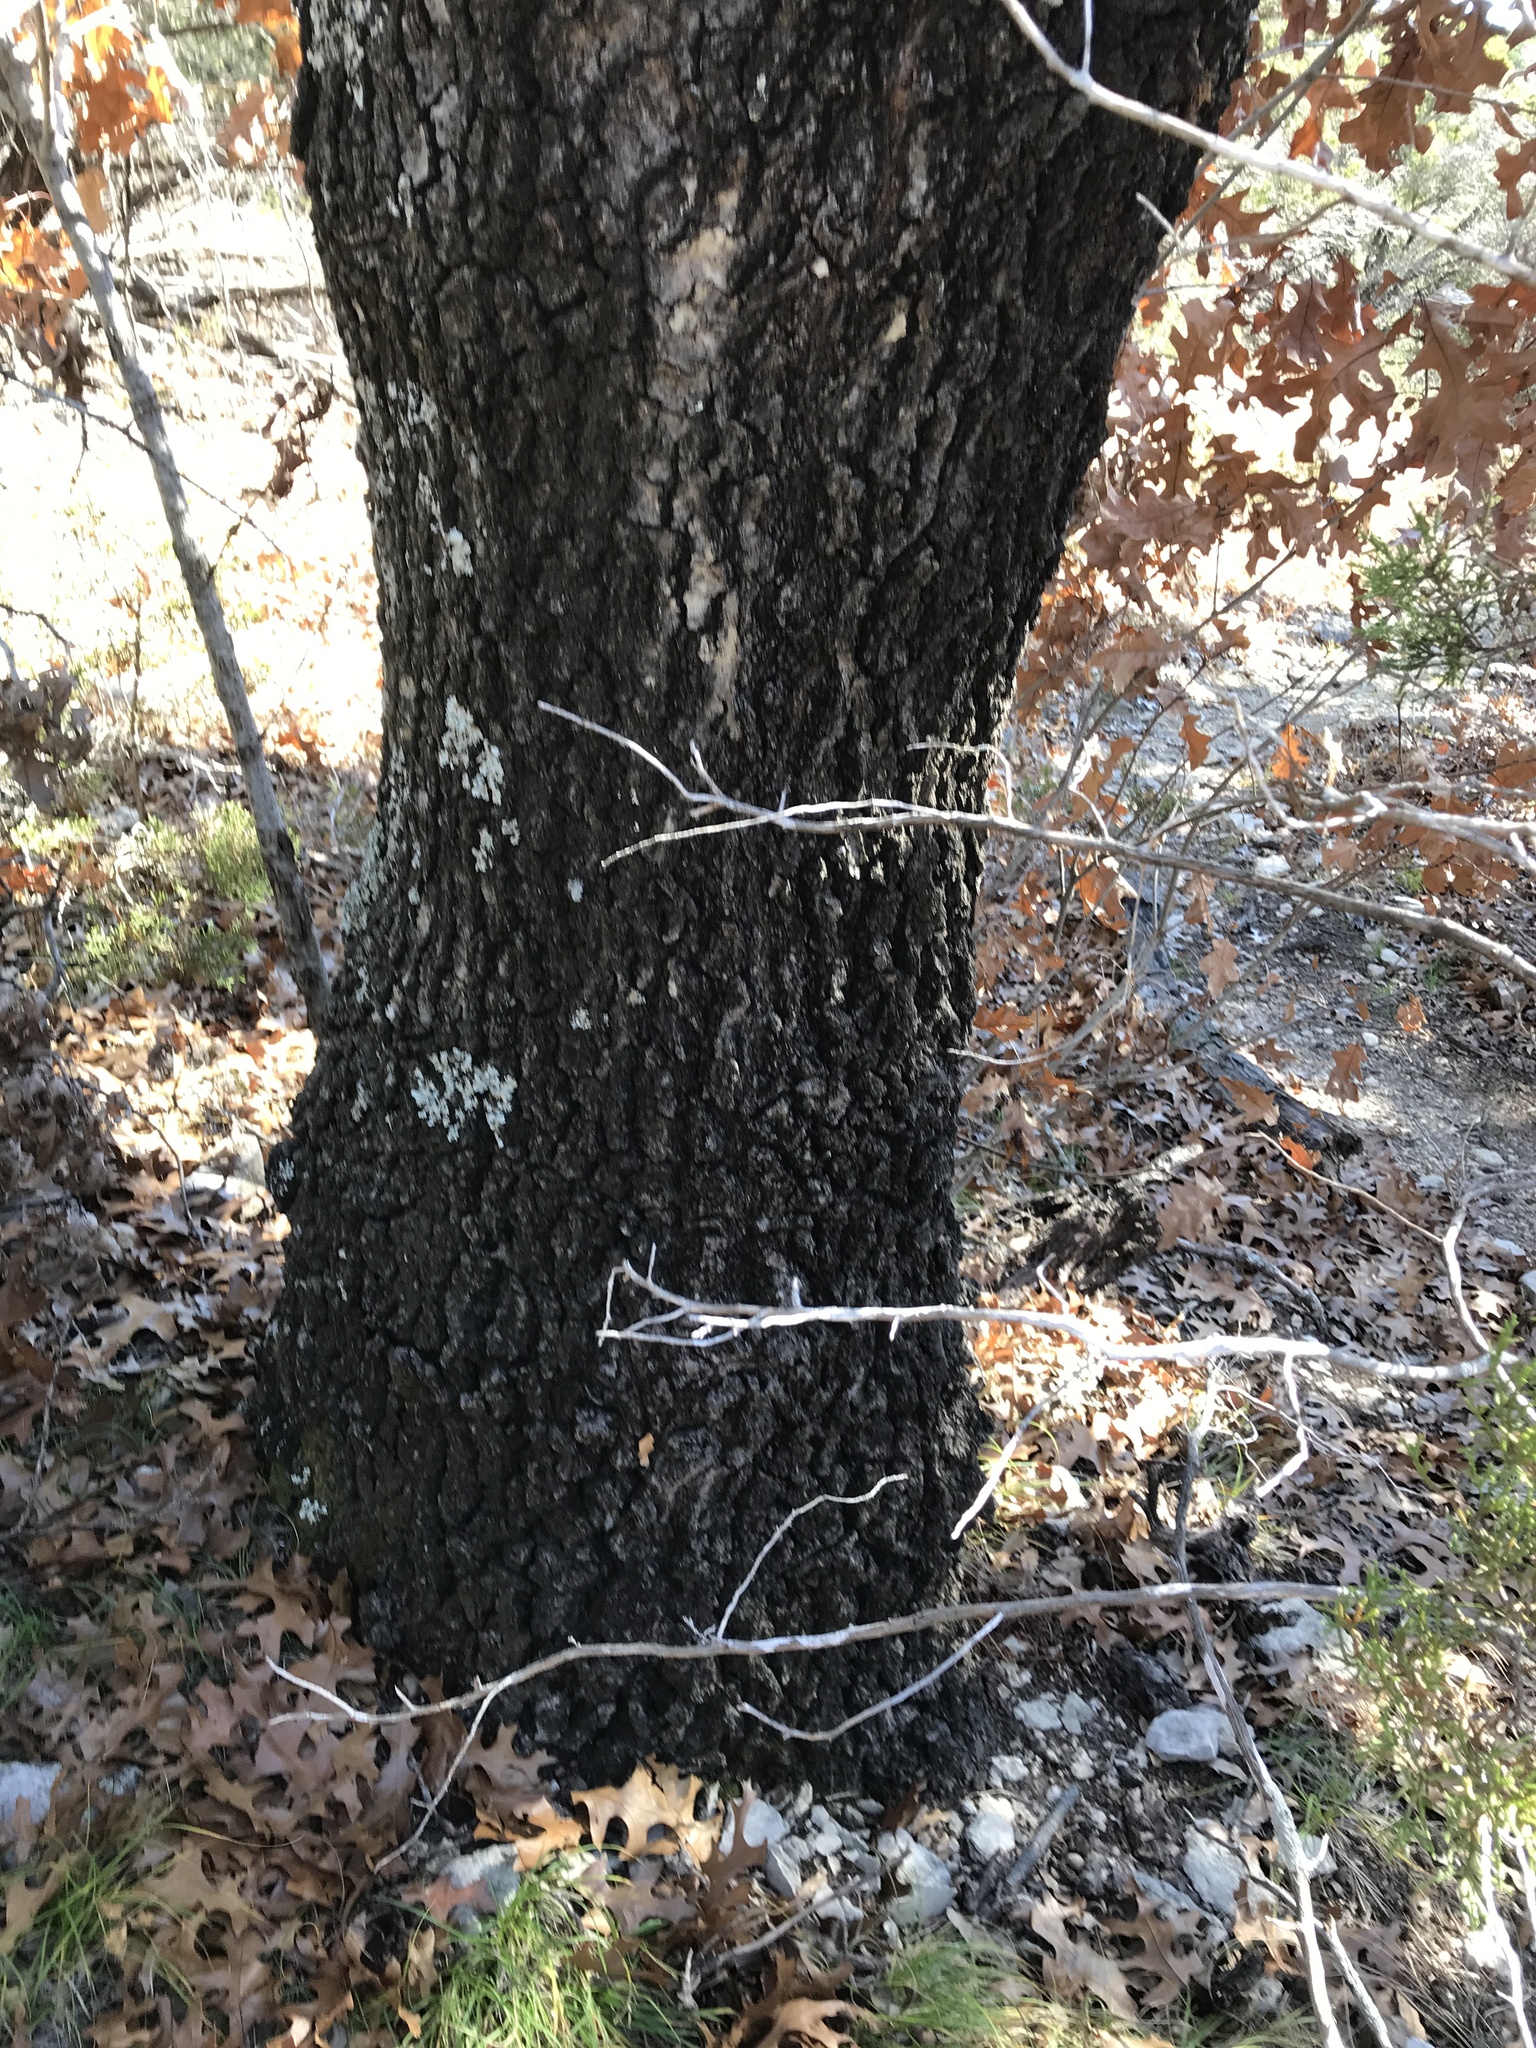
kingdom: Plantae
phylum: Tracheophyta
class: Magnoliopsida
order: Fagales
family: Fagaceae
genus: Quercus
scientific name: Quercus buckleyi
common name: Buckley oak
